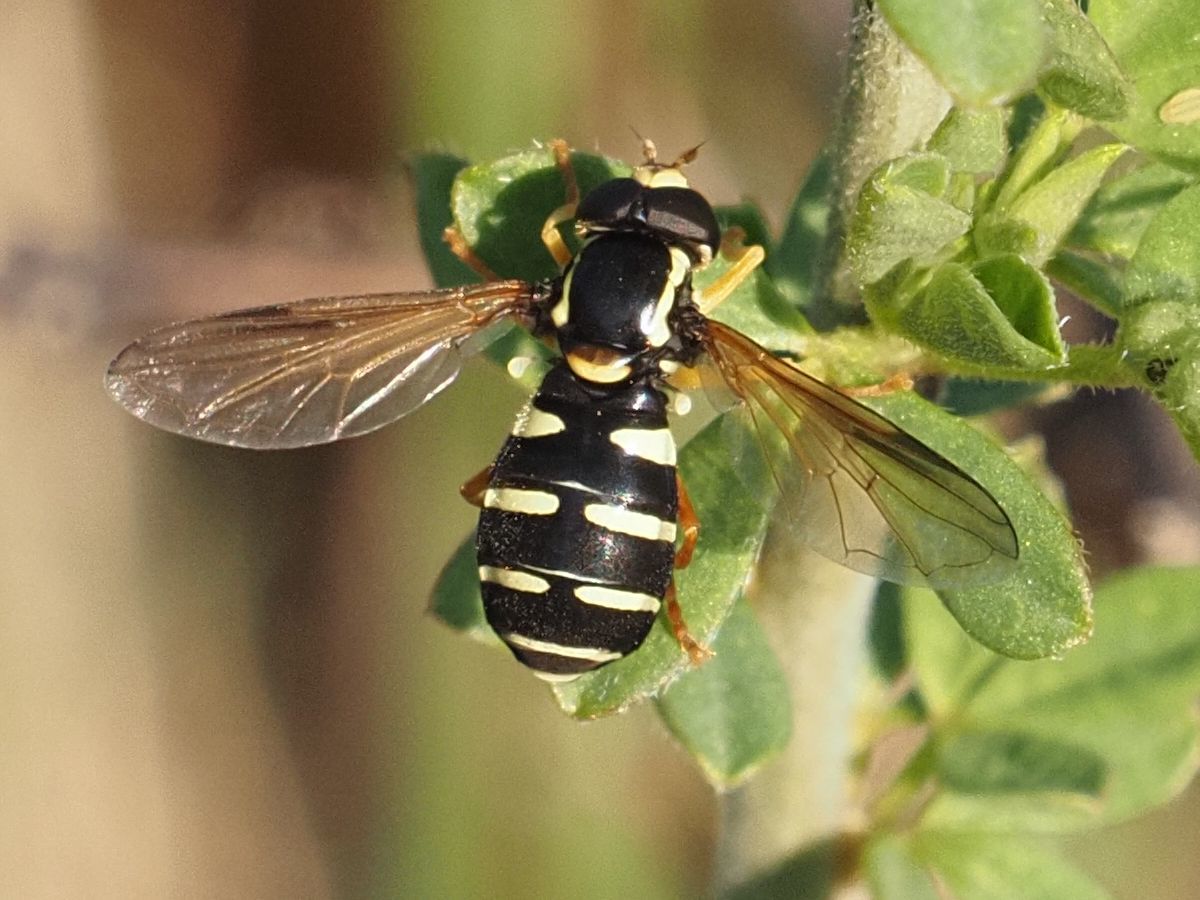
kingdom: Animalia
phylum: Arthropoda
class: Insecta
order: Diptera
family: Syrphidae
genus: Philhelius
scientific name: Philhelius citrofasciata
